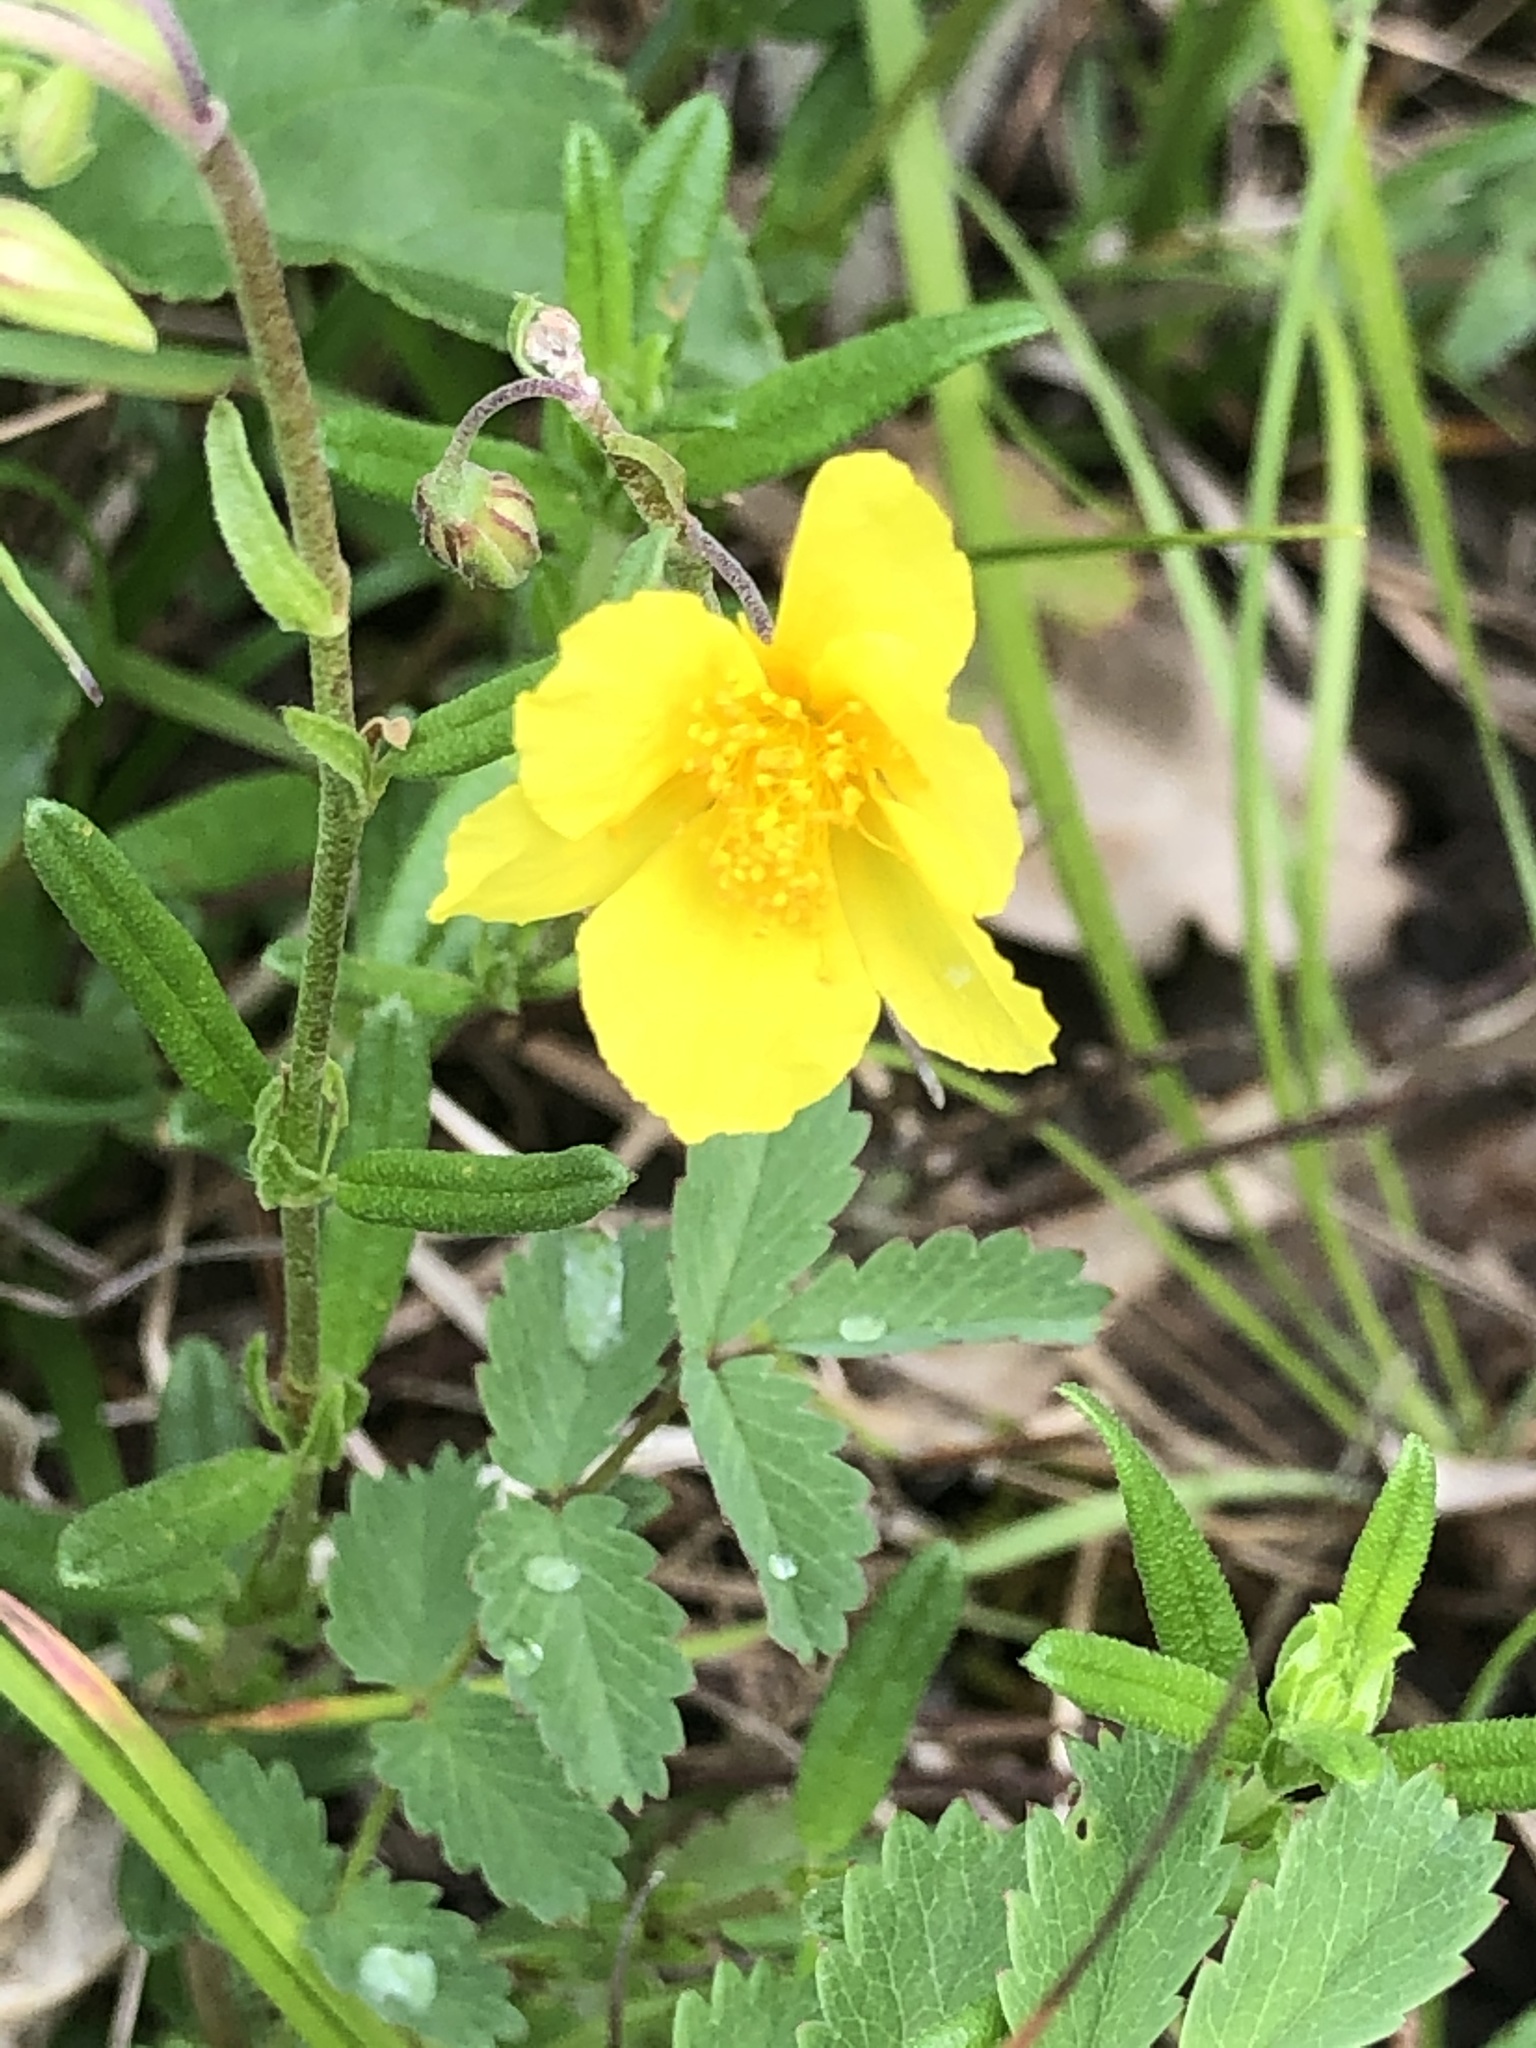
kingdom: Plantae
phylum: Tracheophyta
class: Magnoliopsida
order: Malvales
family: Cistaceae
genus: Helianthemum
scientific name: Helianthemum nummularium
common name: Common rock-rose
